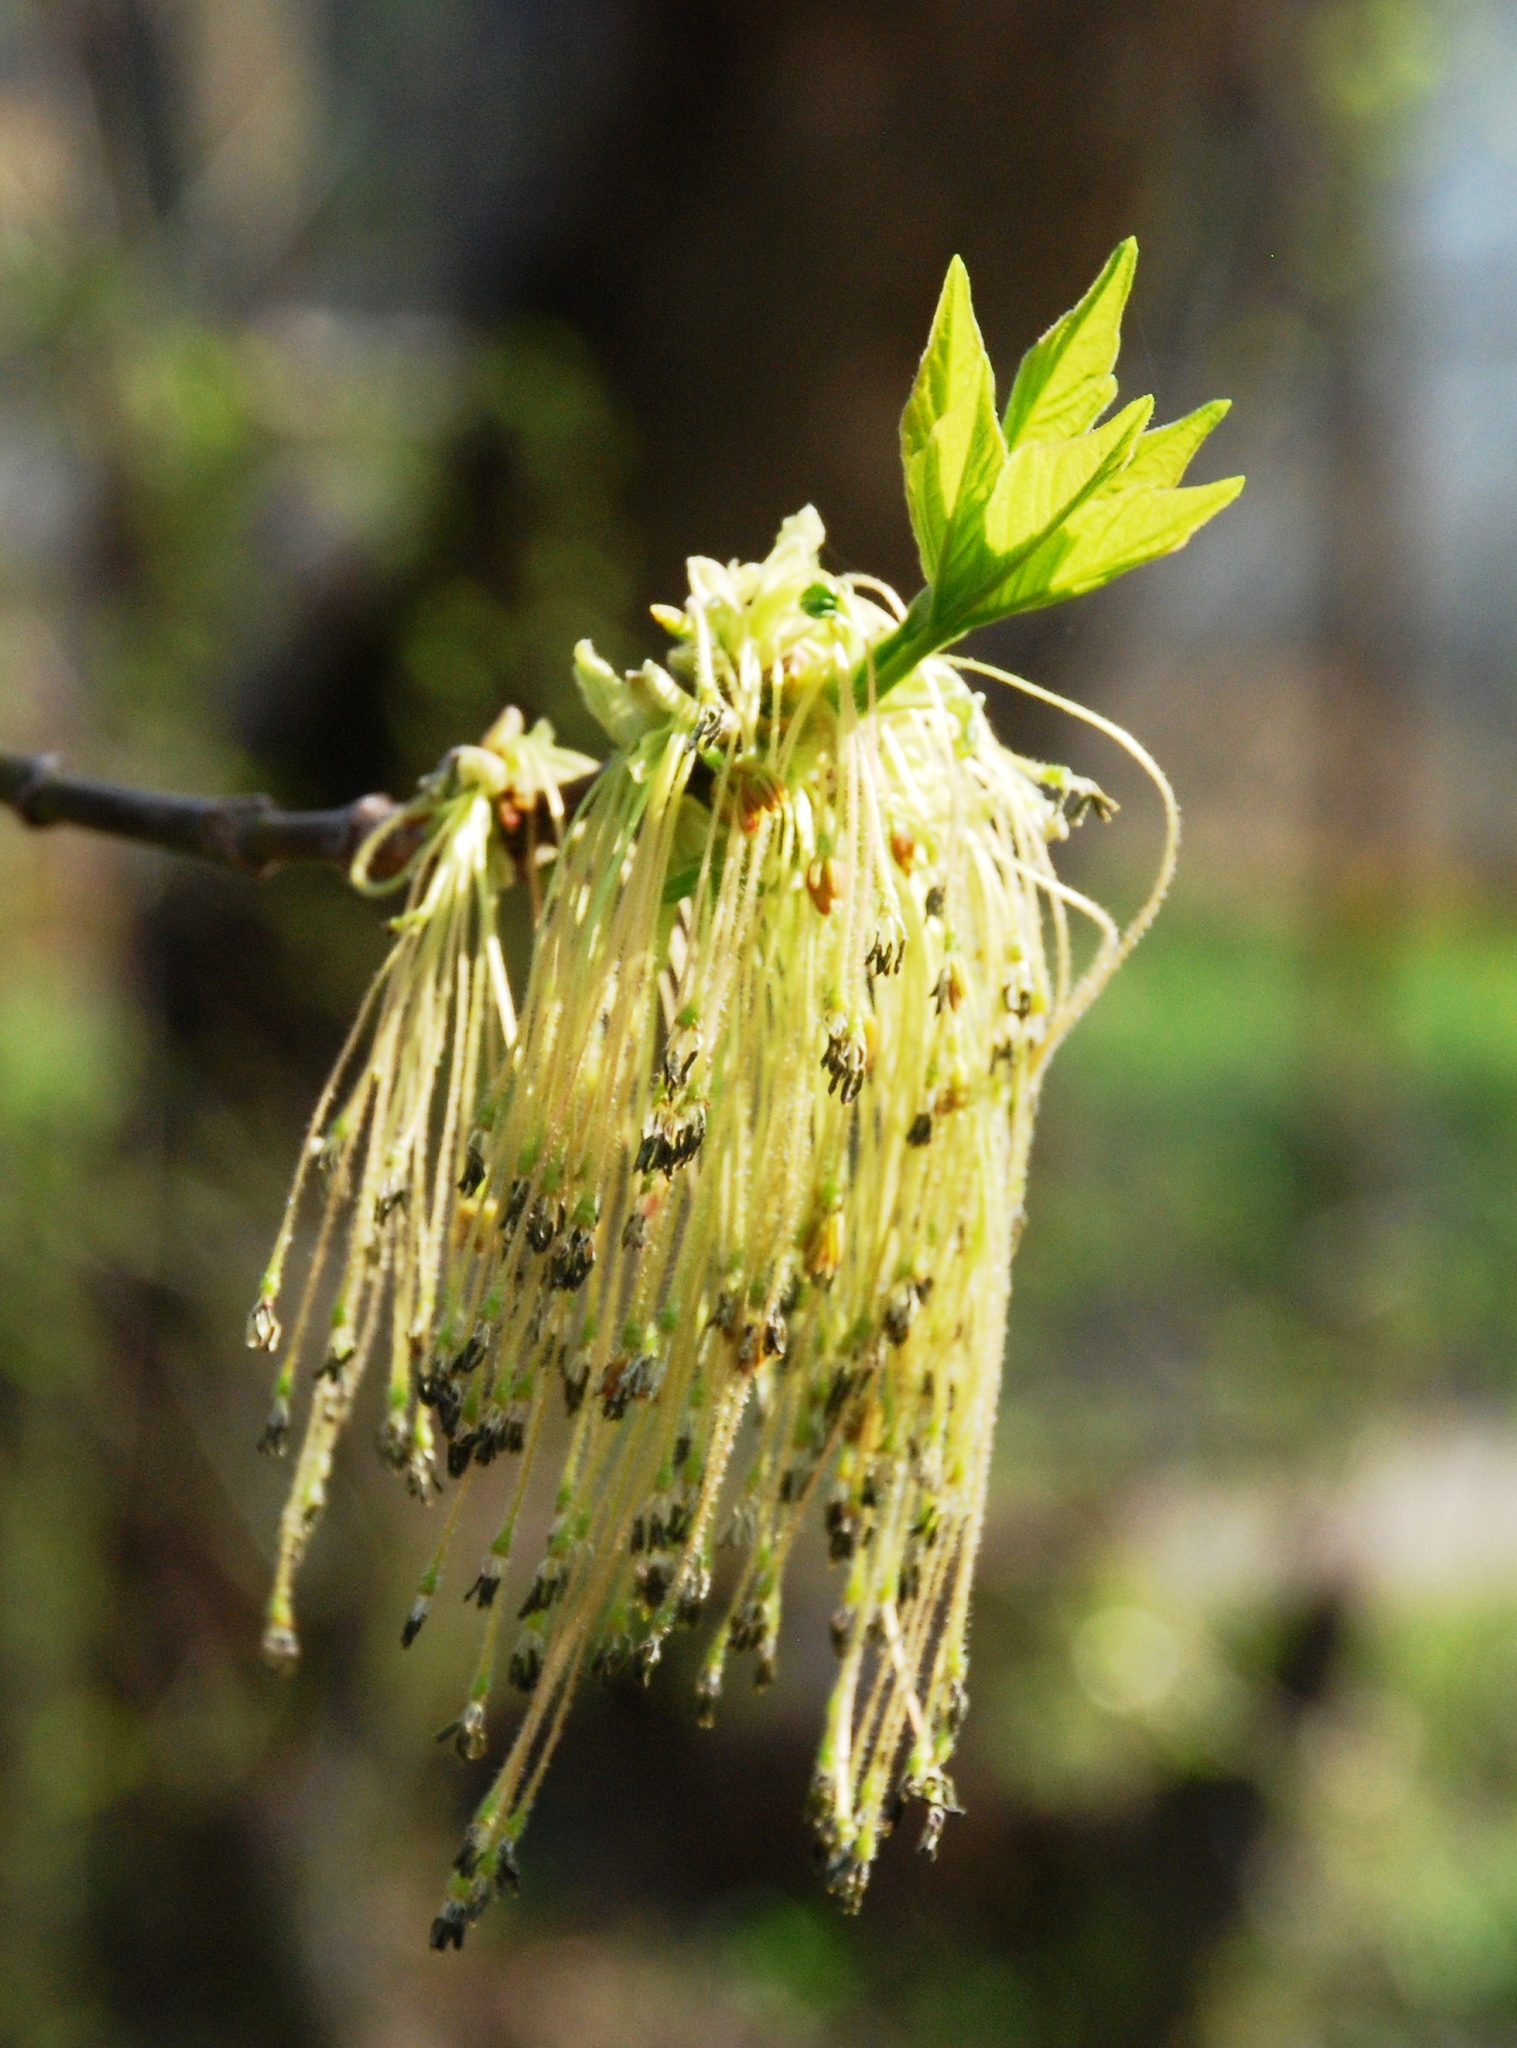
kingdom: Plantae
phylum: Tracheophyta
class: Magnoliopsida
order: Sapindales
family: Sapindaceae
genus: Acer
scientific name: Acer negundo
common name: Ashleaf maple
